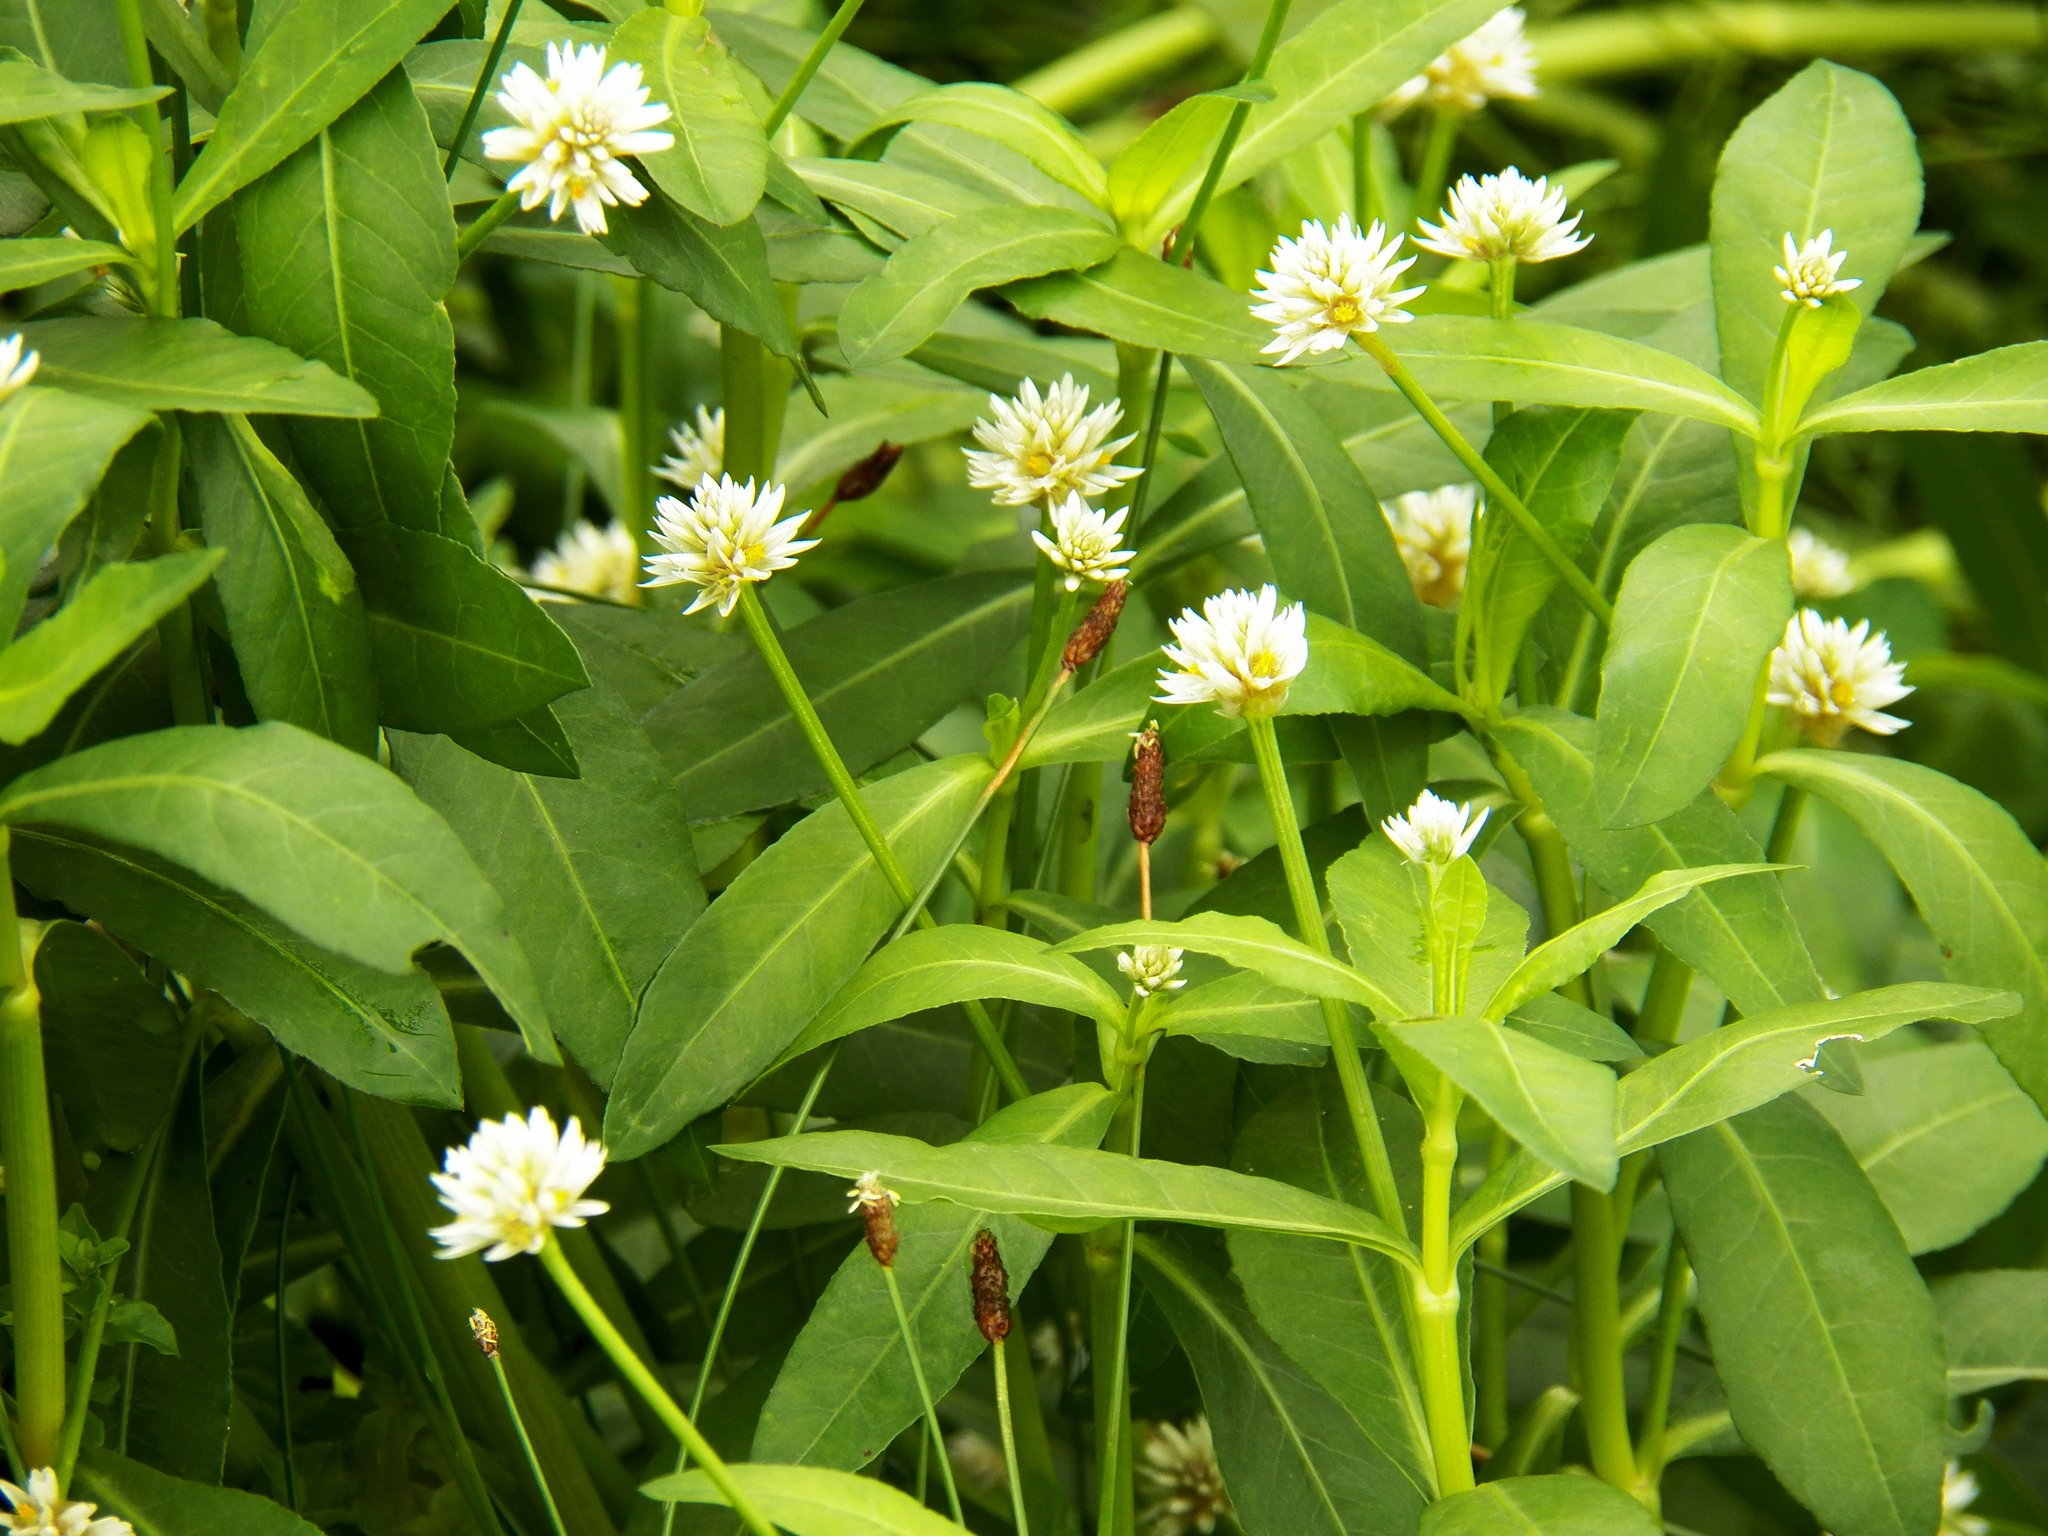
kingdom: Plantae
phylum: Tracheophyta
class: Magnoliopsida
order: Caryophyllales
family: Amaranthaceae
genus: Alternanthera
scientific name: Alternanthera philoxeroides
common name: Alligatorweed
